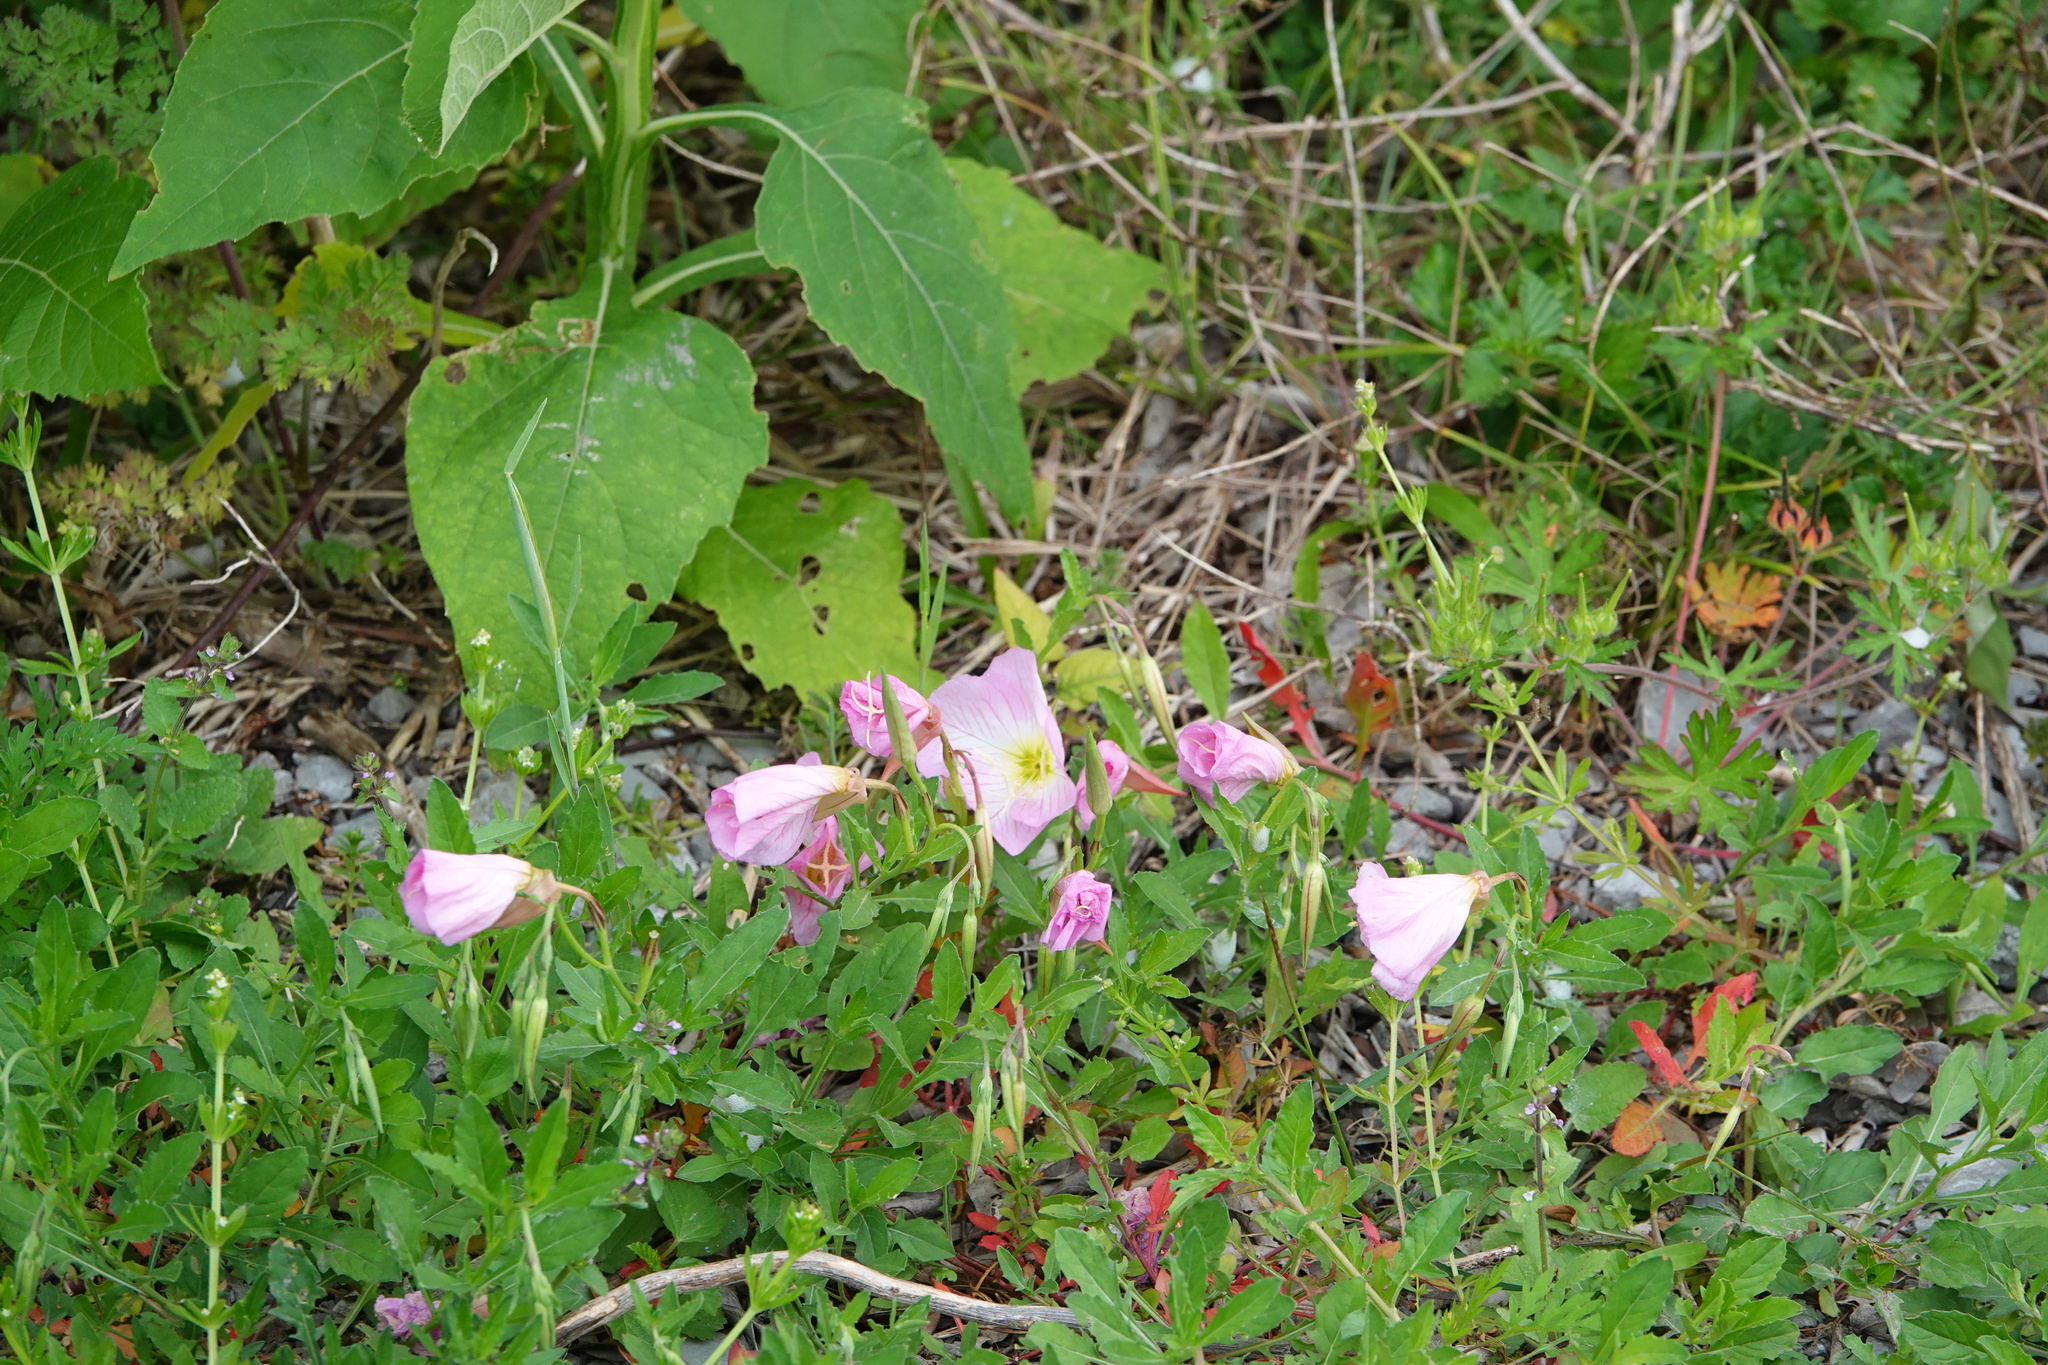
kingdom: Plantae
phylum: Tracheophyta
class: Magnoliopsida
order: Myrtales
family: Onagraceae
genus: Oenothera
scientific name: Oenothera speciosa
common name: White evening-primrose
